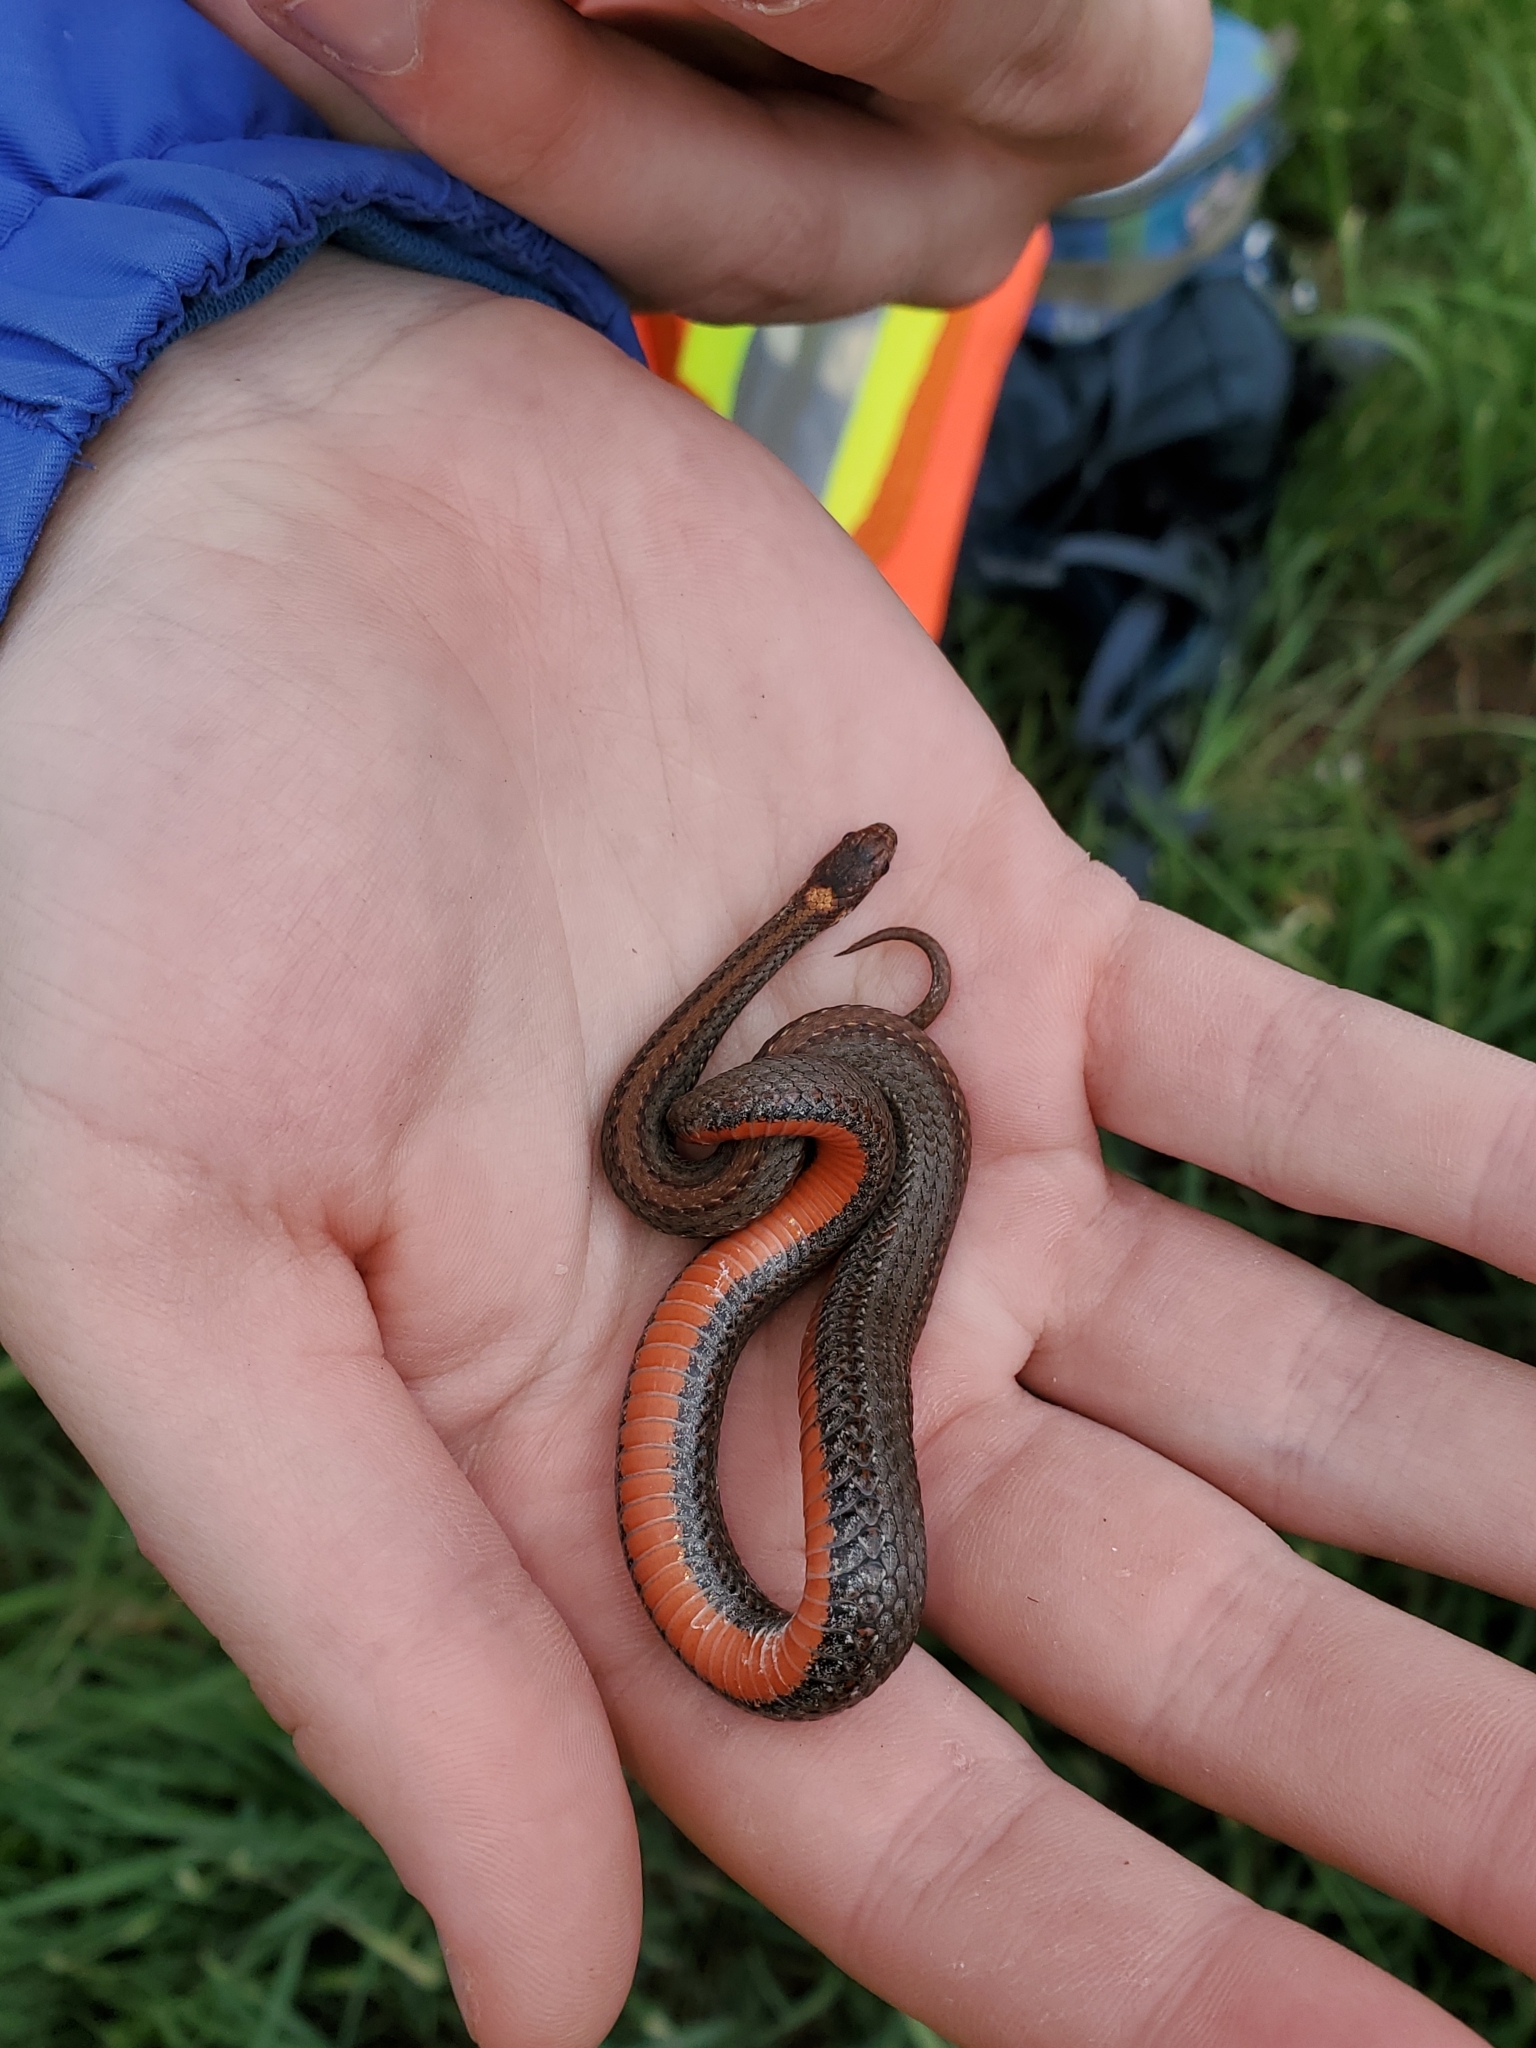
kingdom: Animalia
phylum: Chordata
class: Squamata
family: Colubridae
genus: Storeria
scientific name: Storeria occipitomaculata
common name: Redbelly snake
